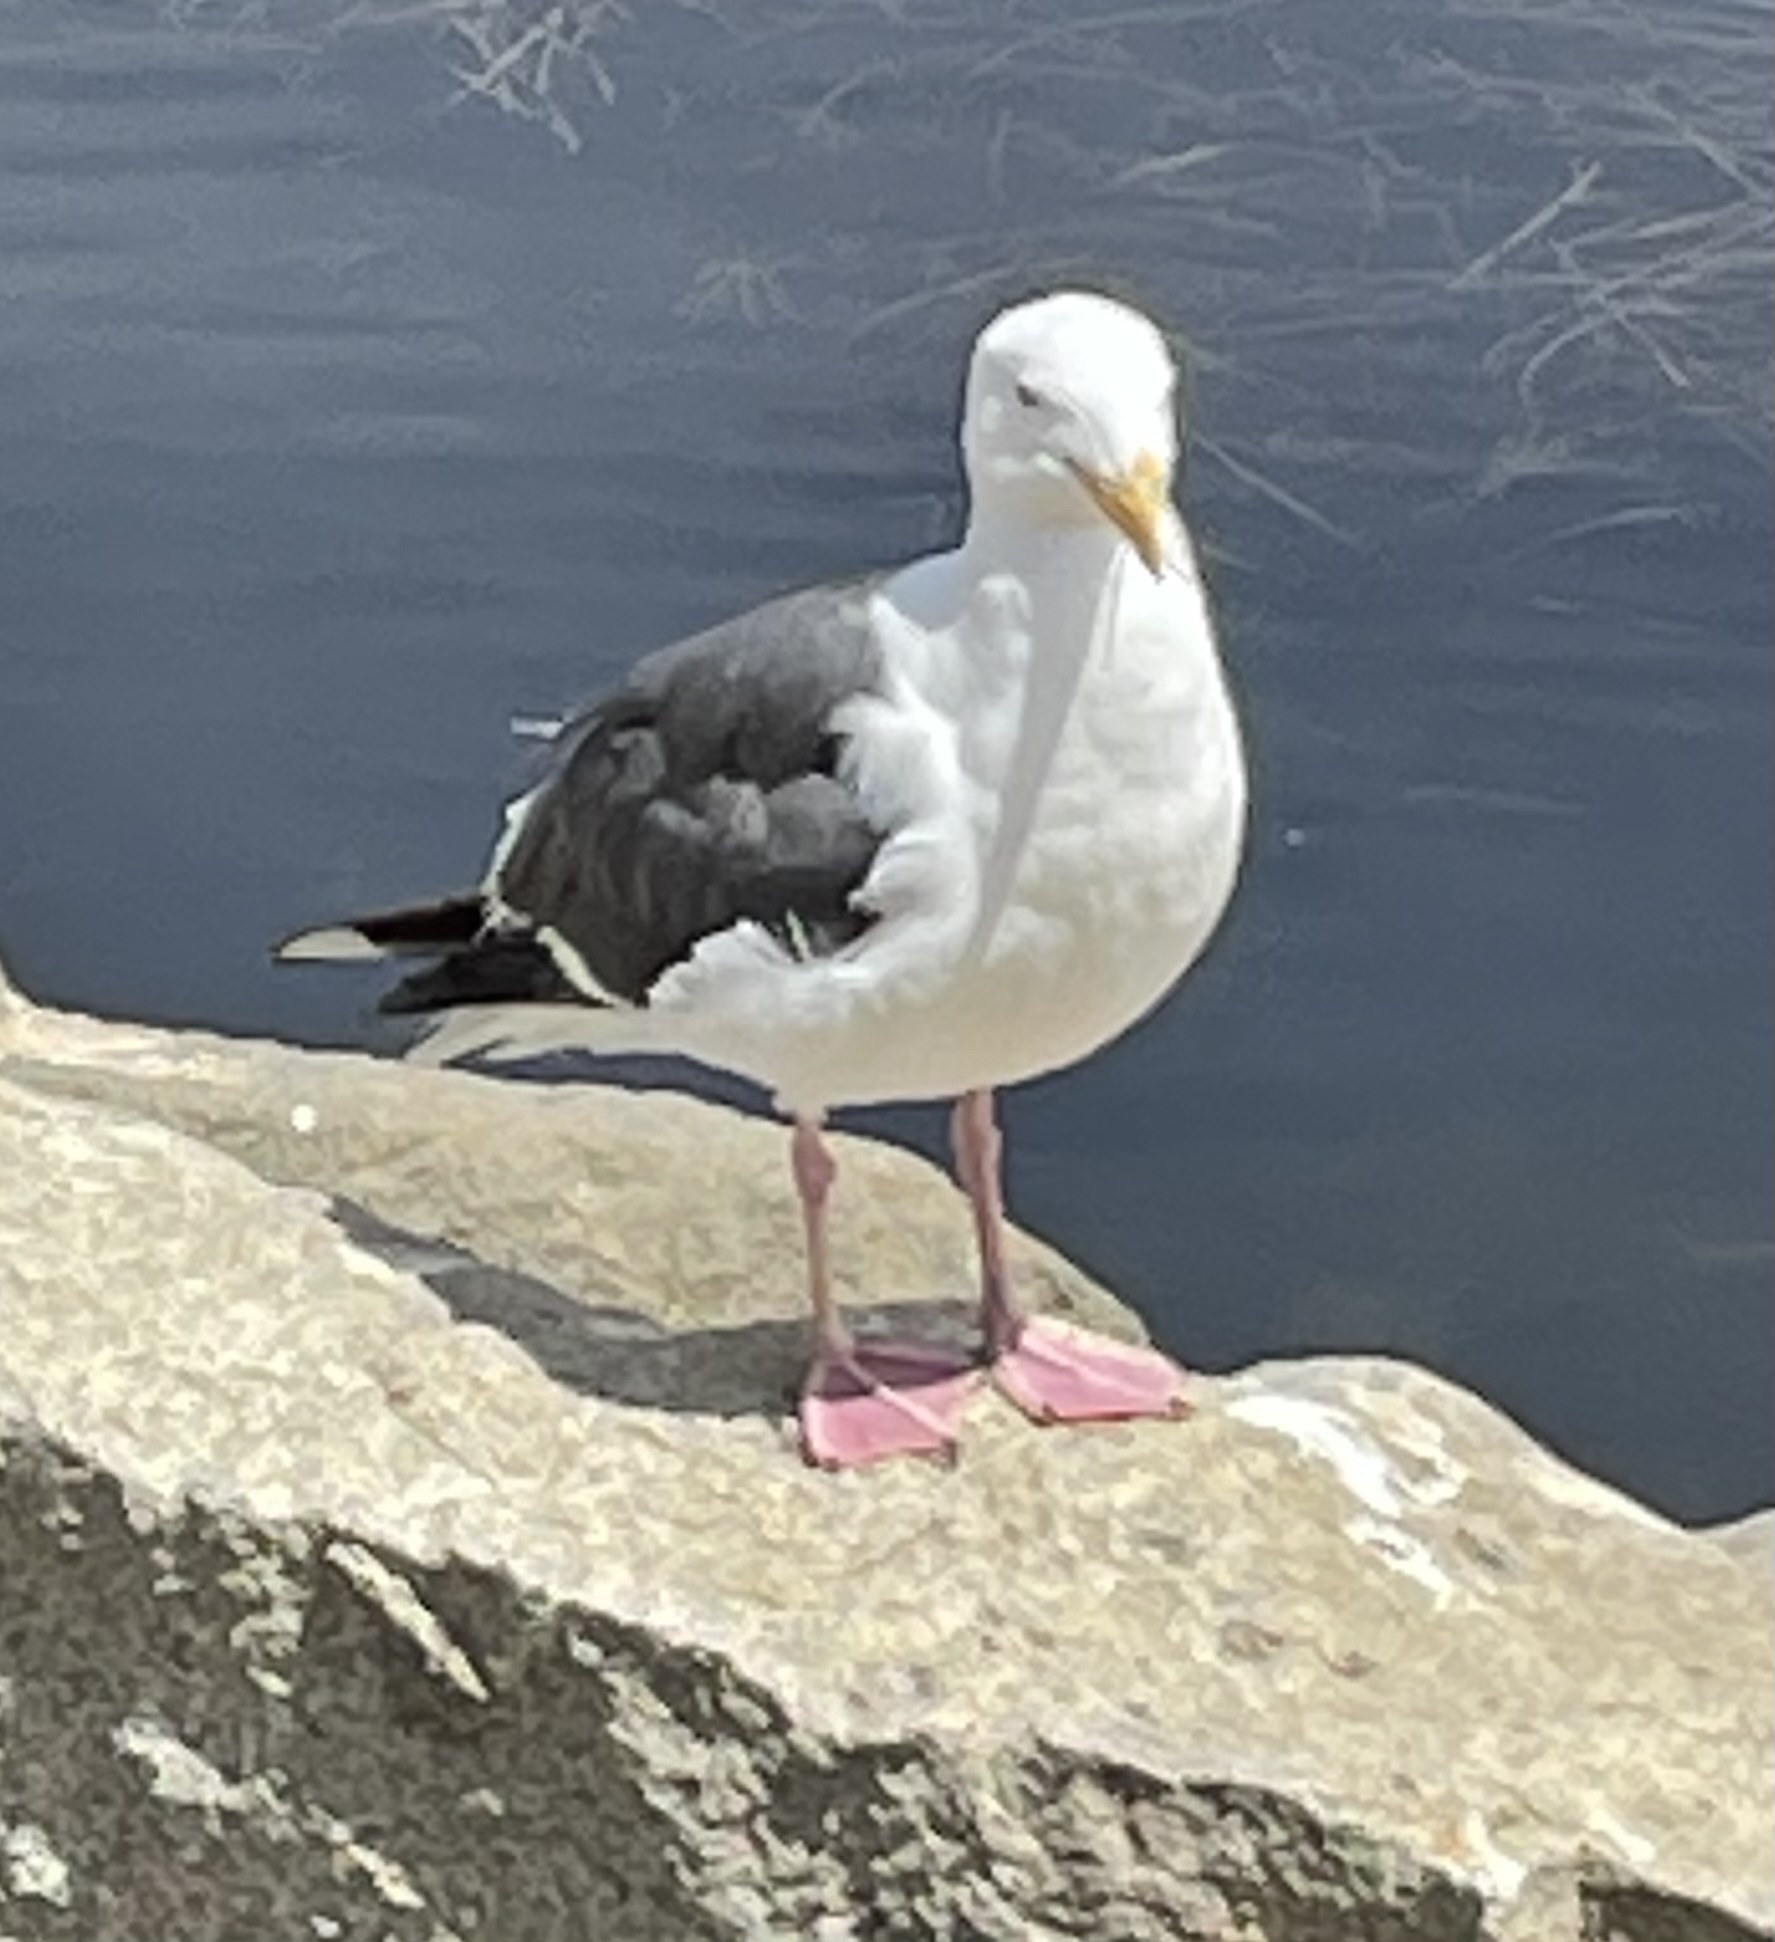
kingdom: Animalia
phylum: Chordata
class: Aves
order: Charadriiformes
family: Laridae
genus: Larus
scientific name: Larus occidentalis
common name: Western gull
